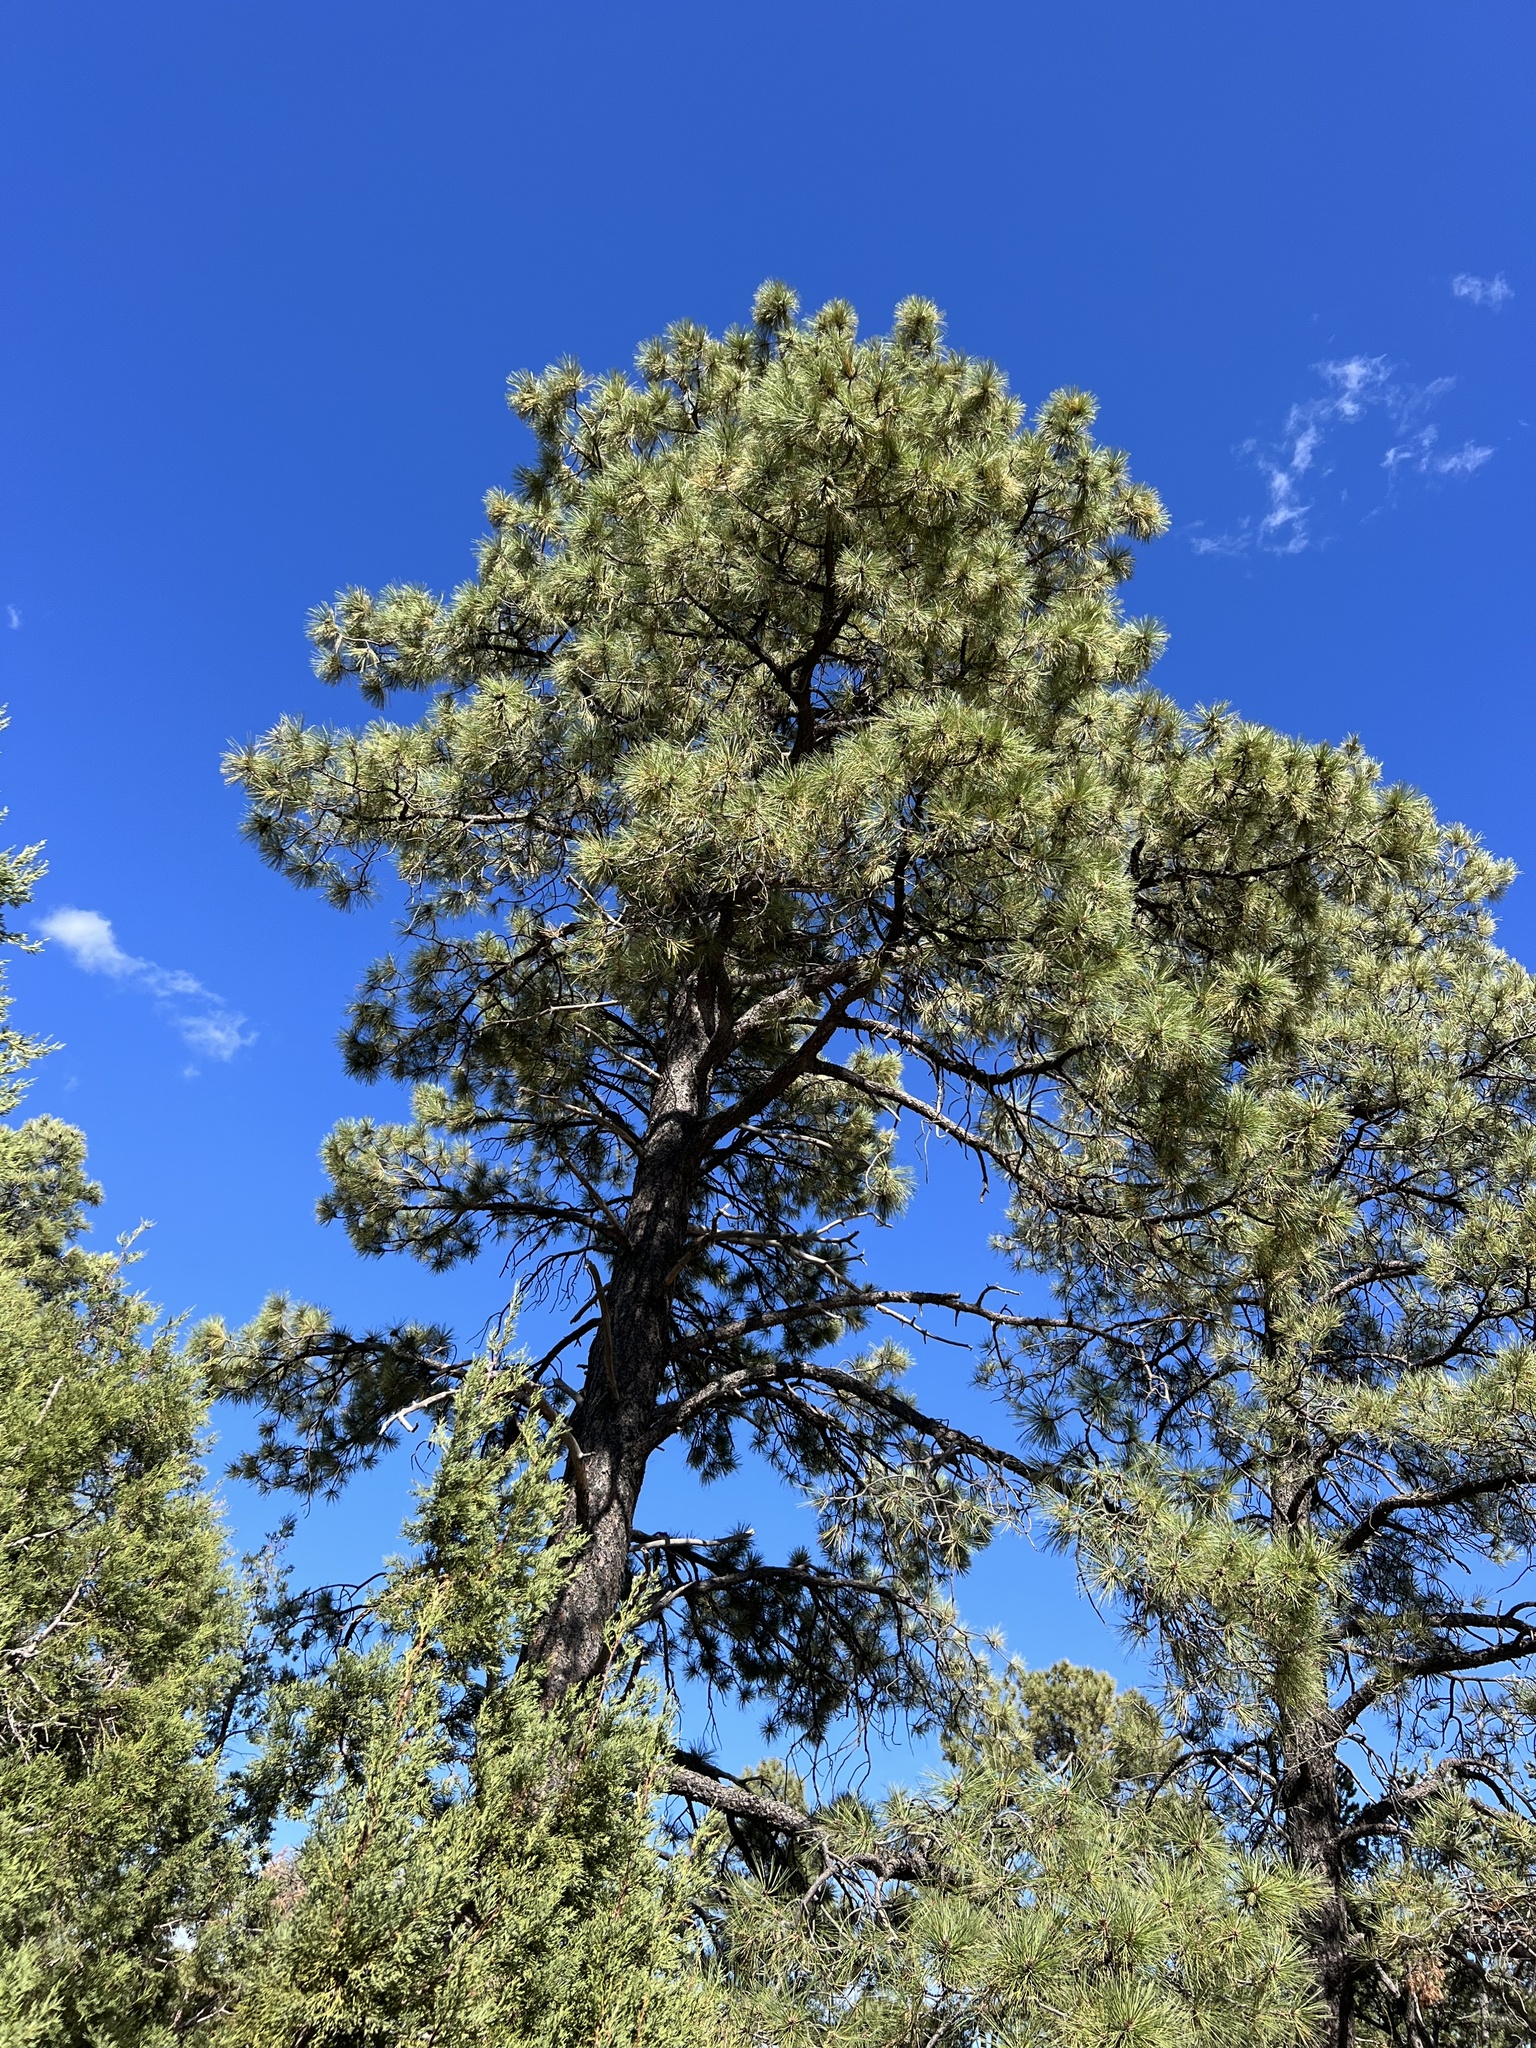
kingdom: Plantae
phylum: Tracheophyta
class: Pinopsida
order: Pinales
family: Pinaceae
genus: Pinus
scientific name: Pinus ponderosa
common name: Western yellow-pine
